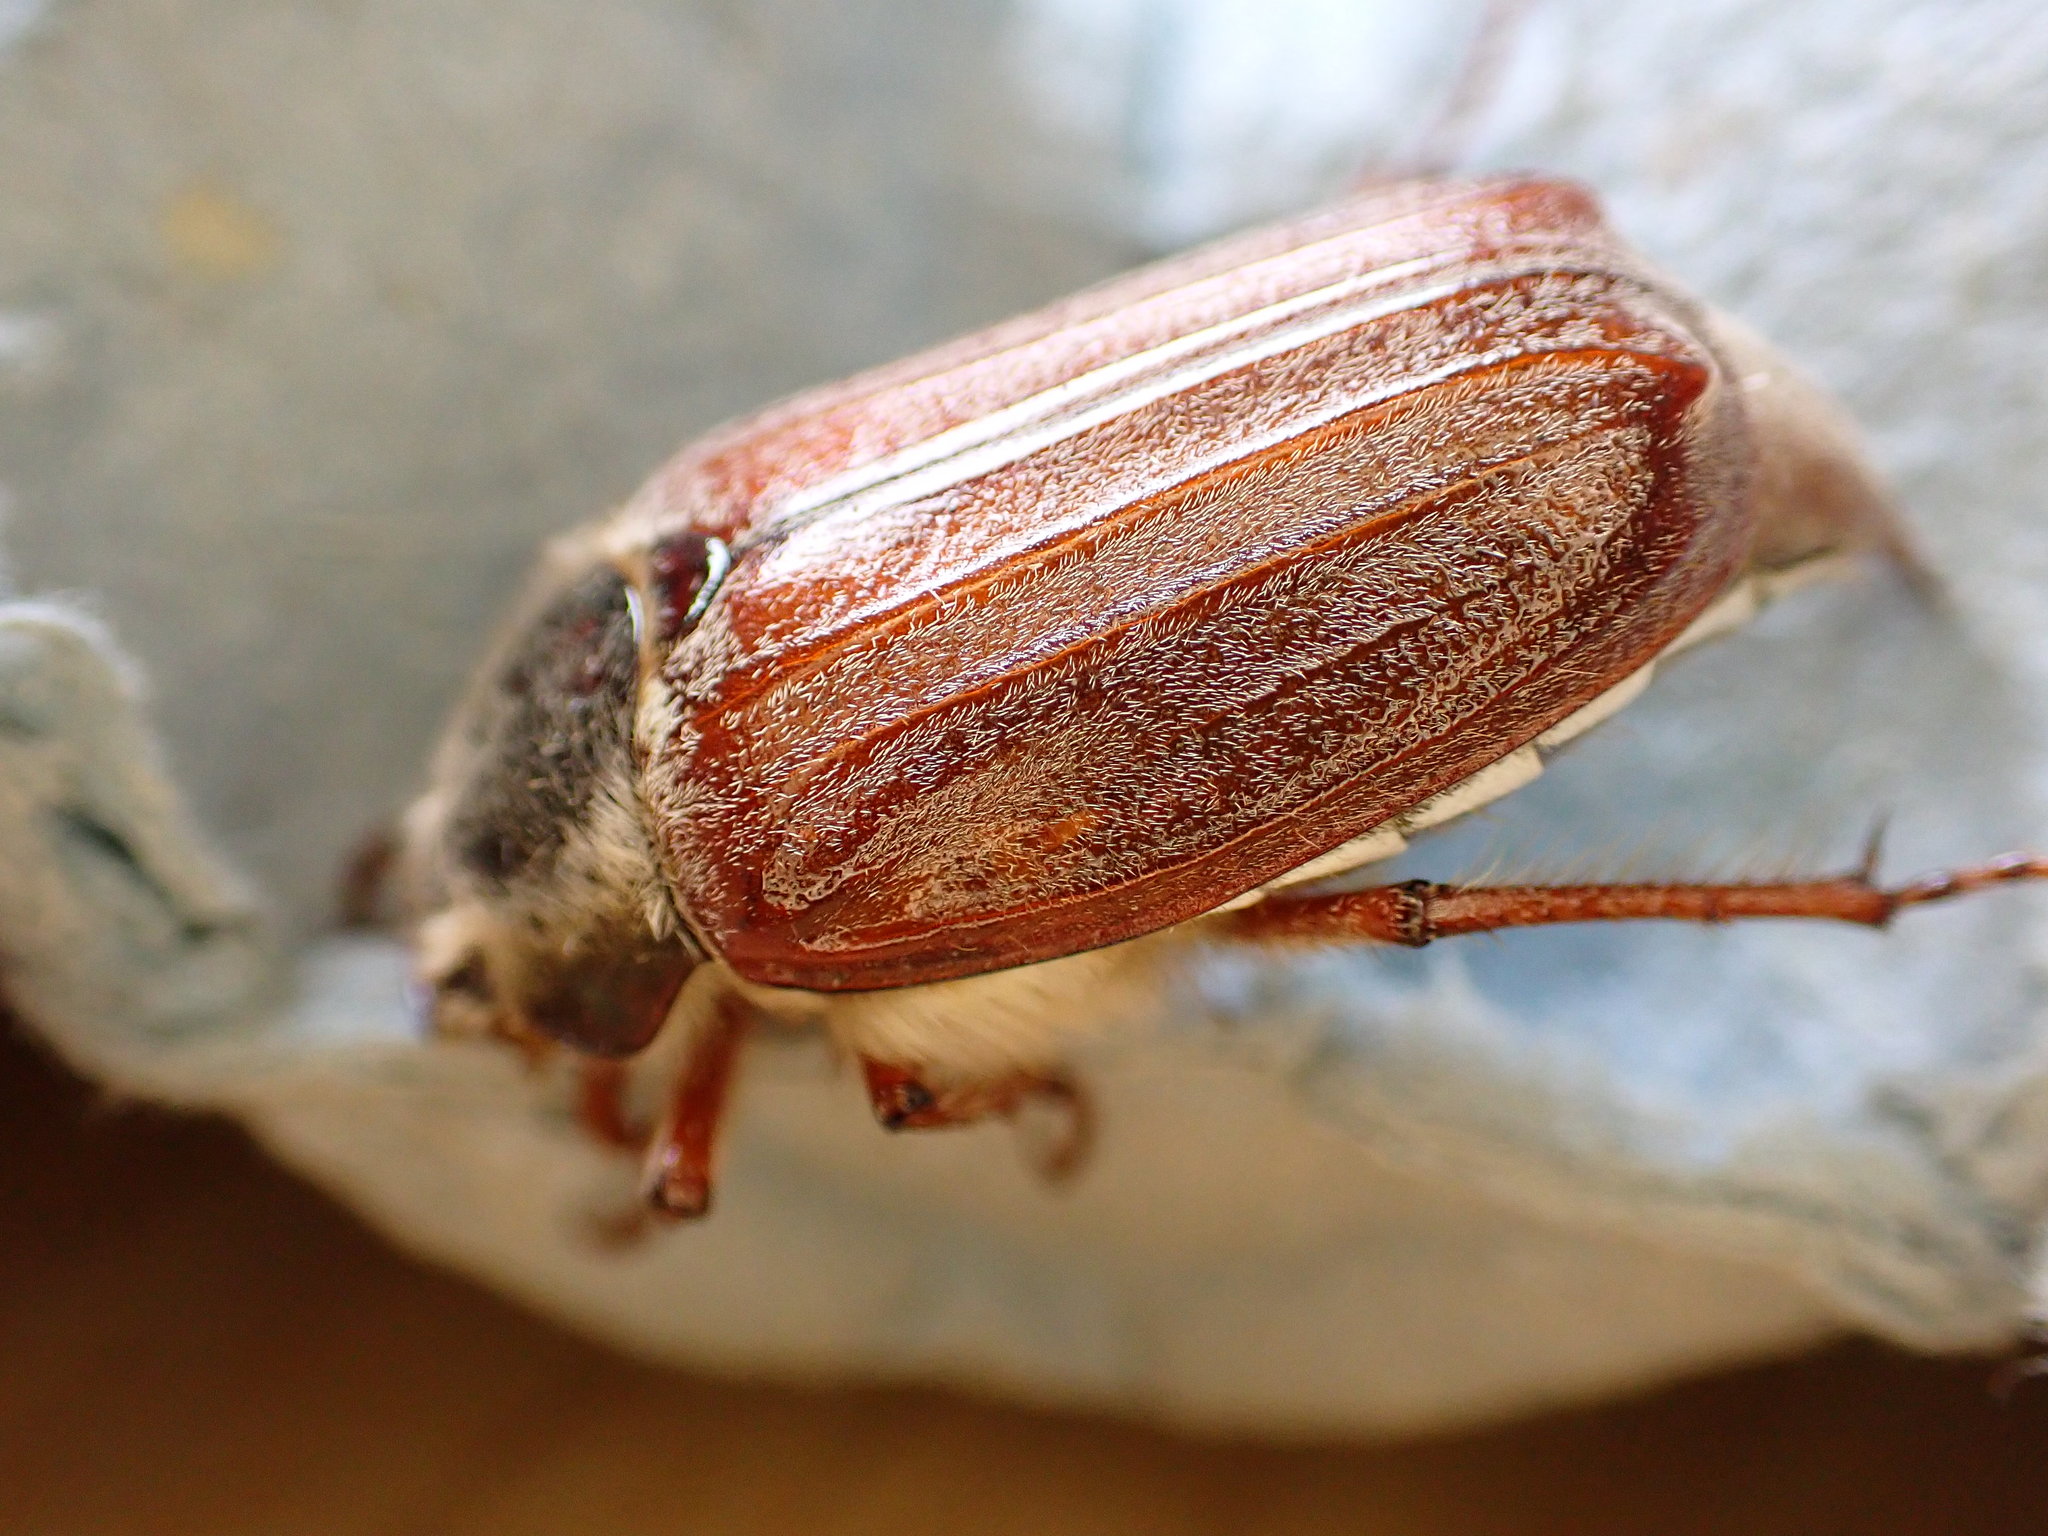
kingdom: Animalia
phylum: Arthropoda
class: Insecta
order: Coleoptera
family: Scarabaeidae
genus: Melolontha
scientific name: Melolontha melolontha
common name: Cockchafer maybeetle
